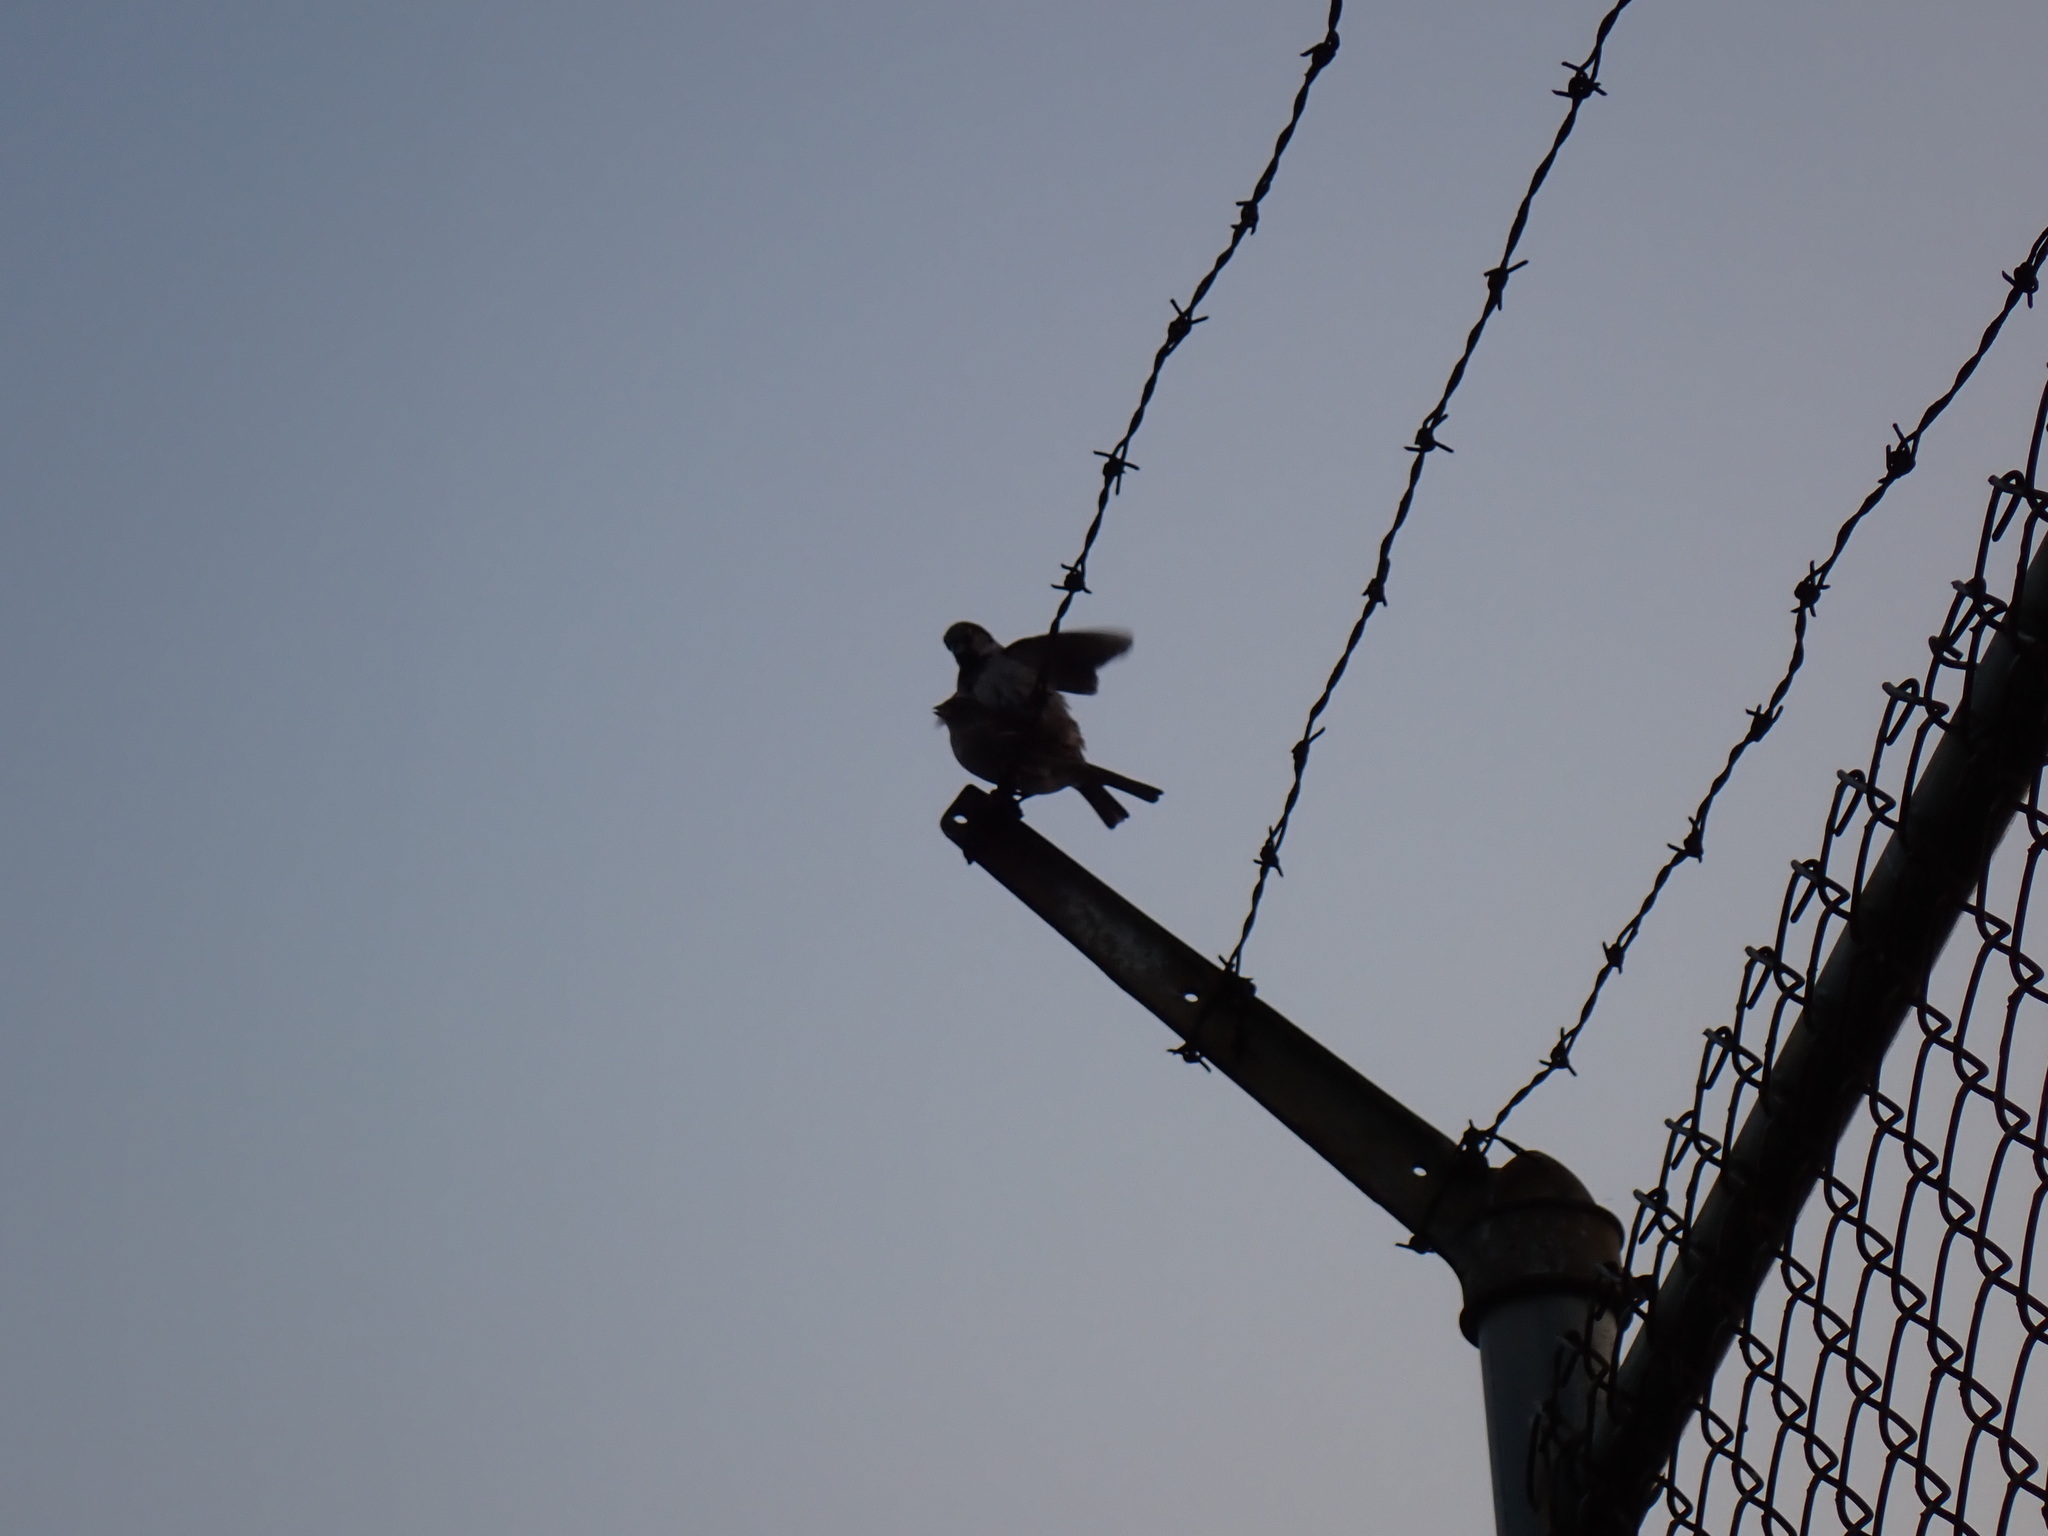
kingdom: Animalia
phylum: Chordata
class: Aves
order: Passeriformes
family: Passeridae
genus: Passer
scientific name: Passer domesticus
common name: House sparrow
